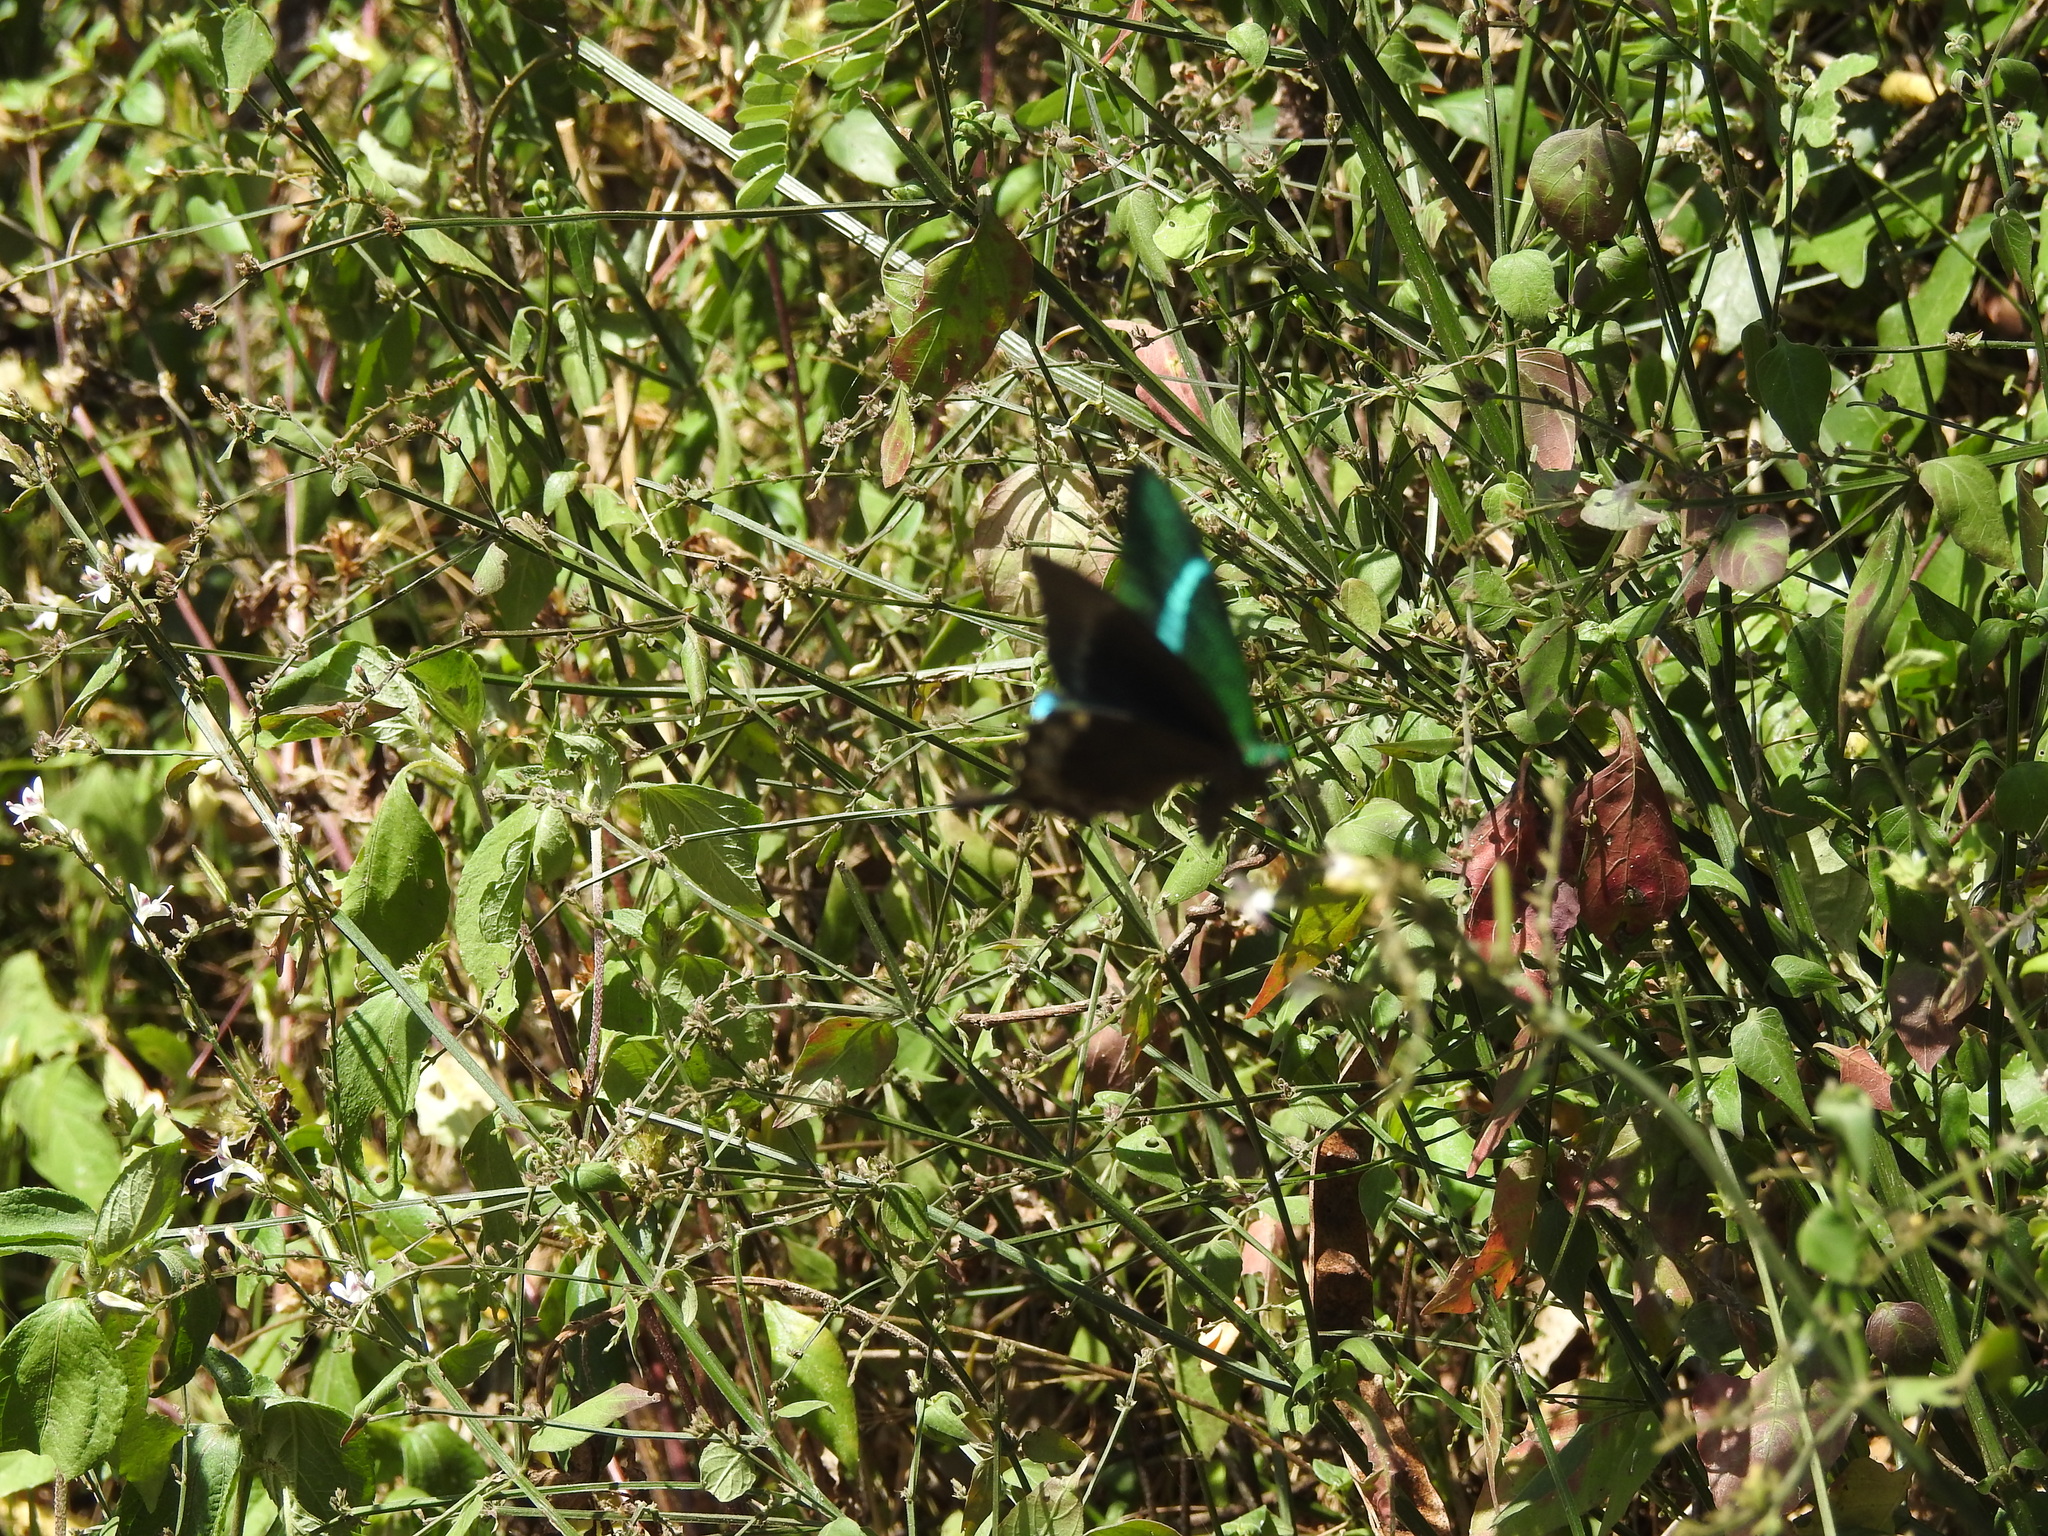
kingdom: Animalia
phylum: Arthropoda
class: Insecta
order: Lepidoptera
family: Papilionidae
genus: Papilio
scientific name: Papilio crino
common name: Common banded peacock
